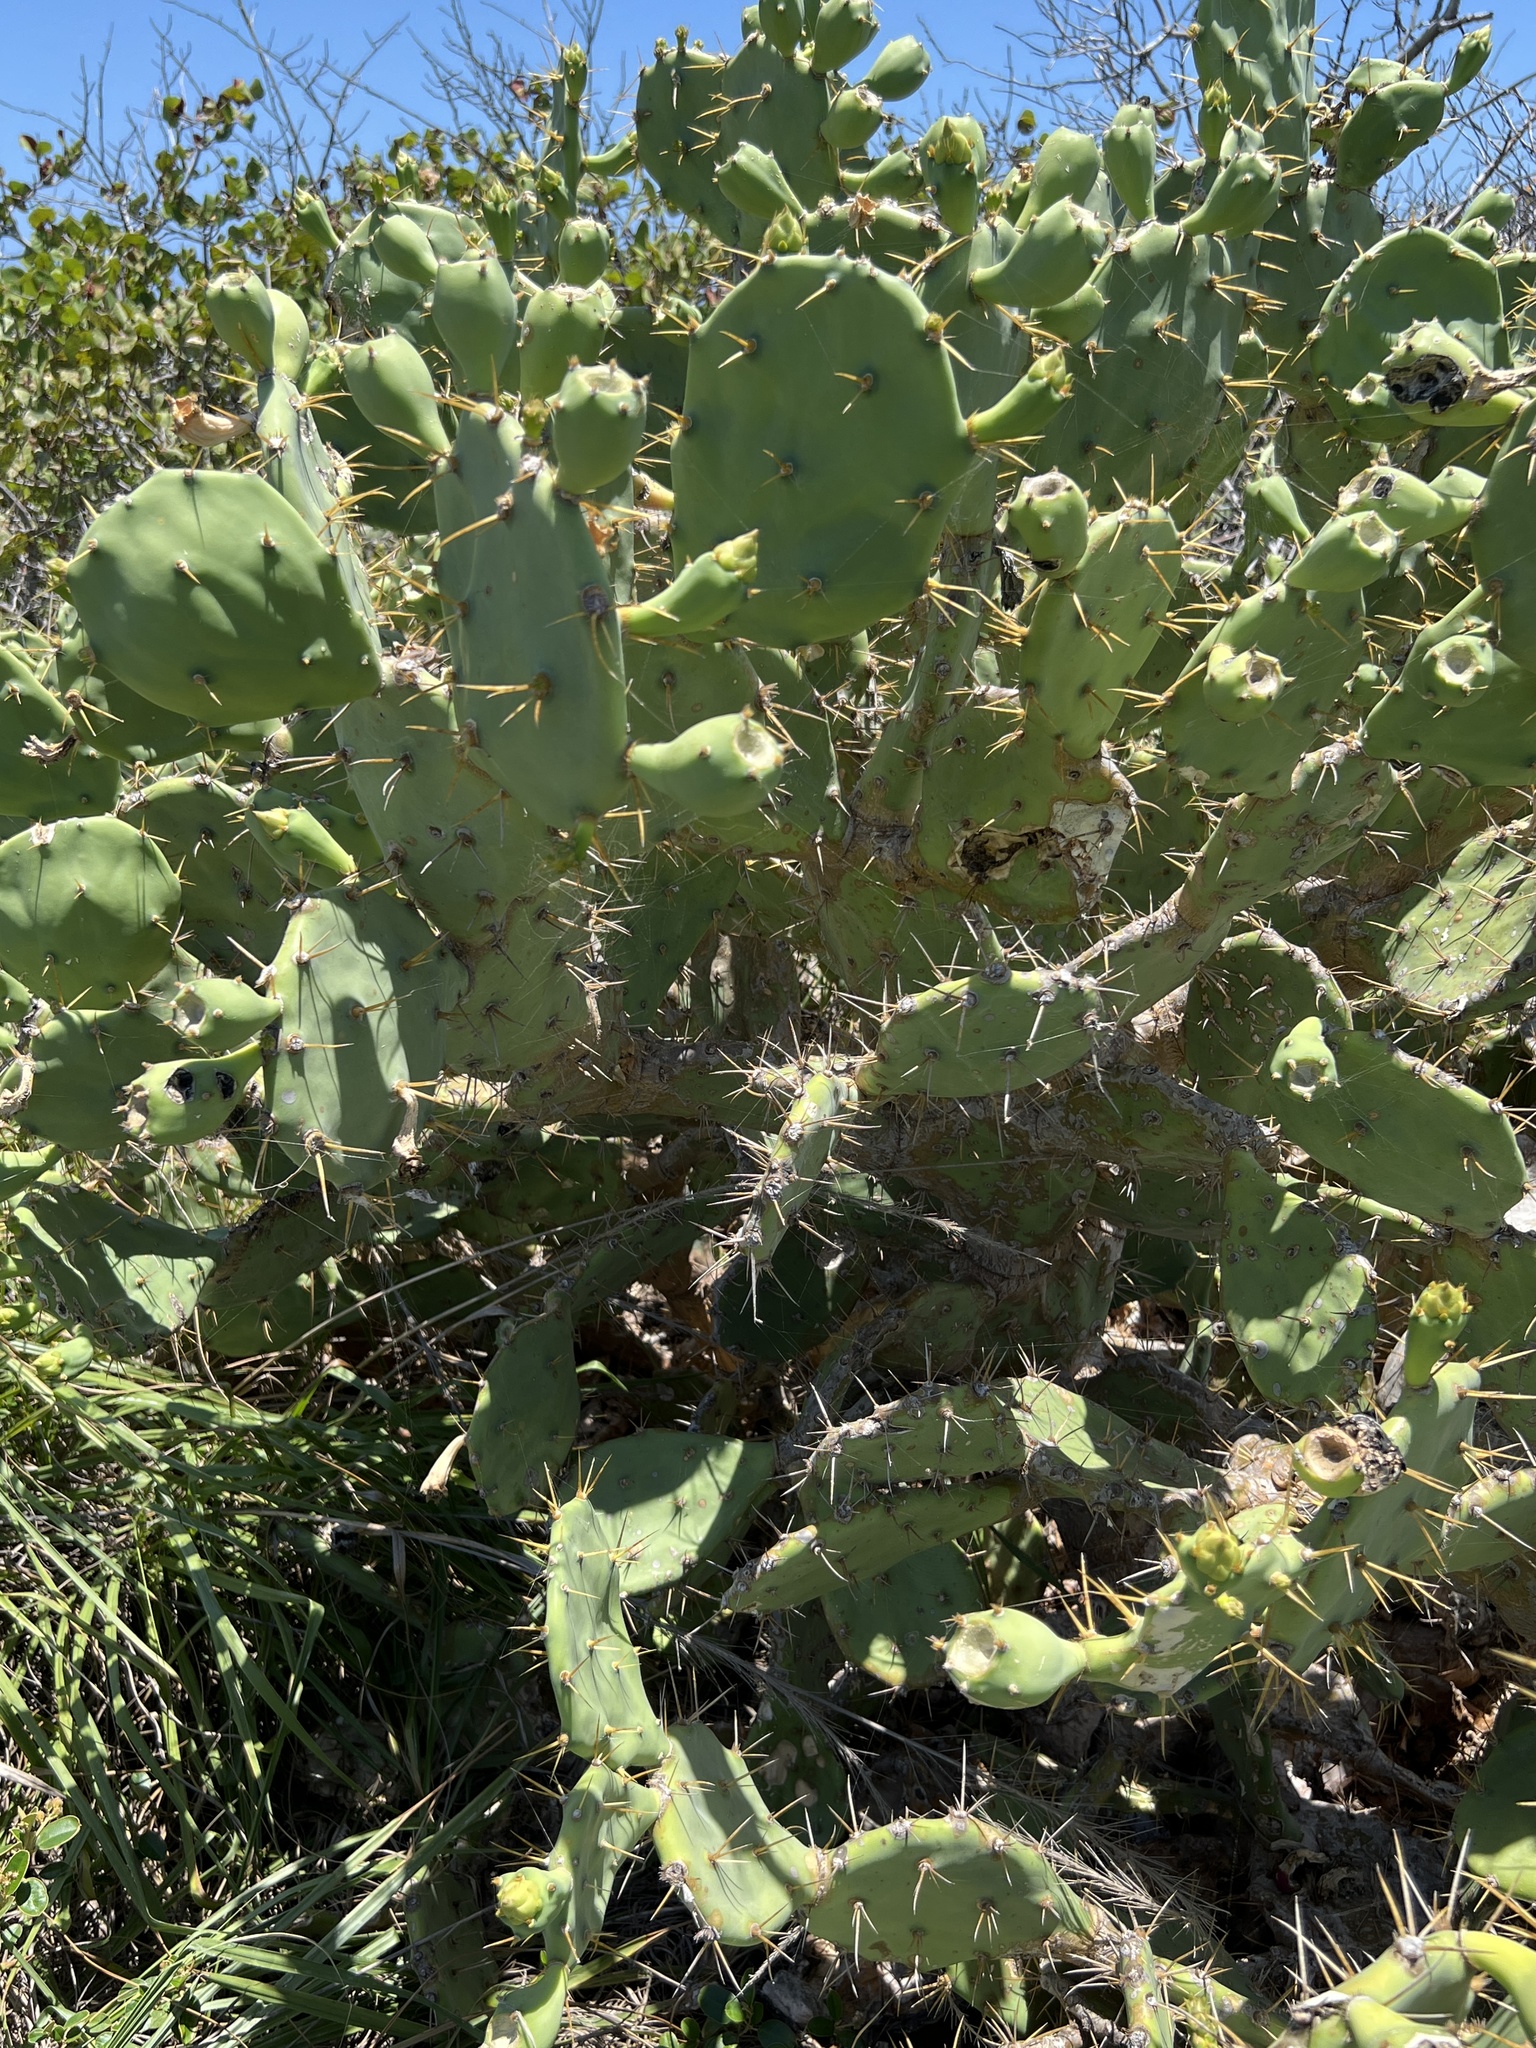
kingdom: Plantae
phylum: Tracheophyta
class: Magnoliopsida
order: Caryophyllales
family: Cactaceae
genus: Opuntia
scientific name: Opuntia stricta
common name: Erect pricklypear
